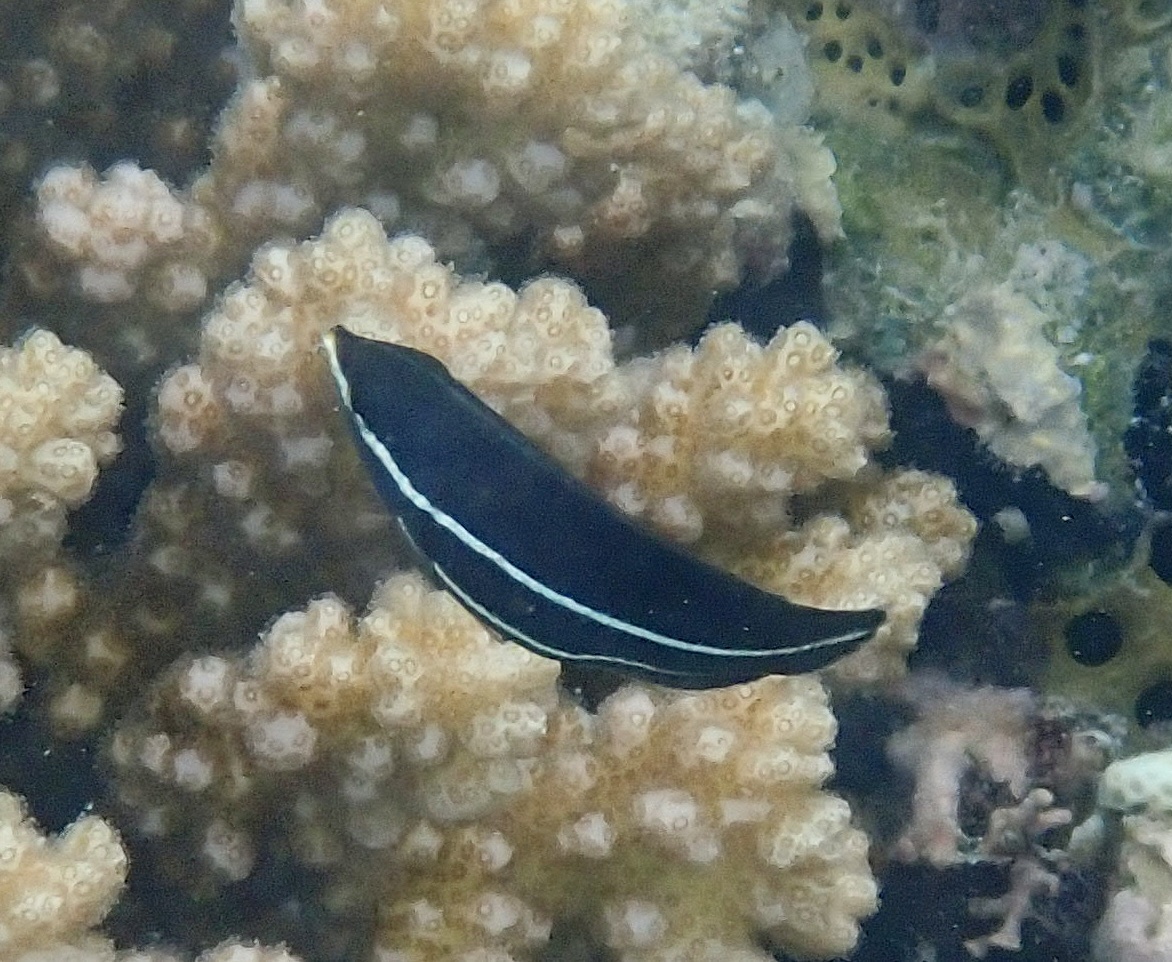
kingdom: Animalia
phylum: Chordata
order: Perciformes
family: Labridae
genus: Labrichthys
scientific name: Labrichthys unilineatus
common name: Onelined wrasse
